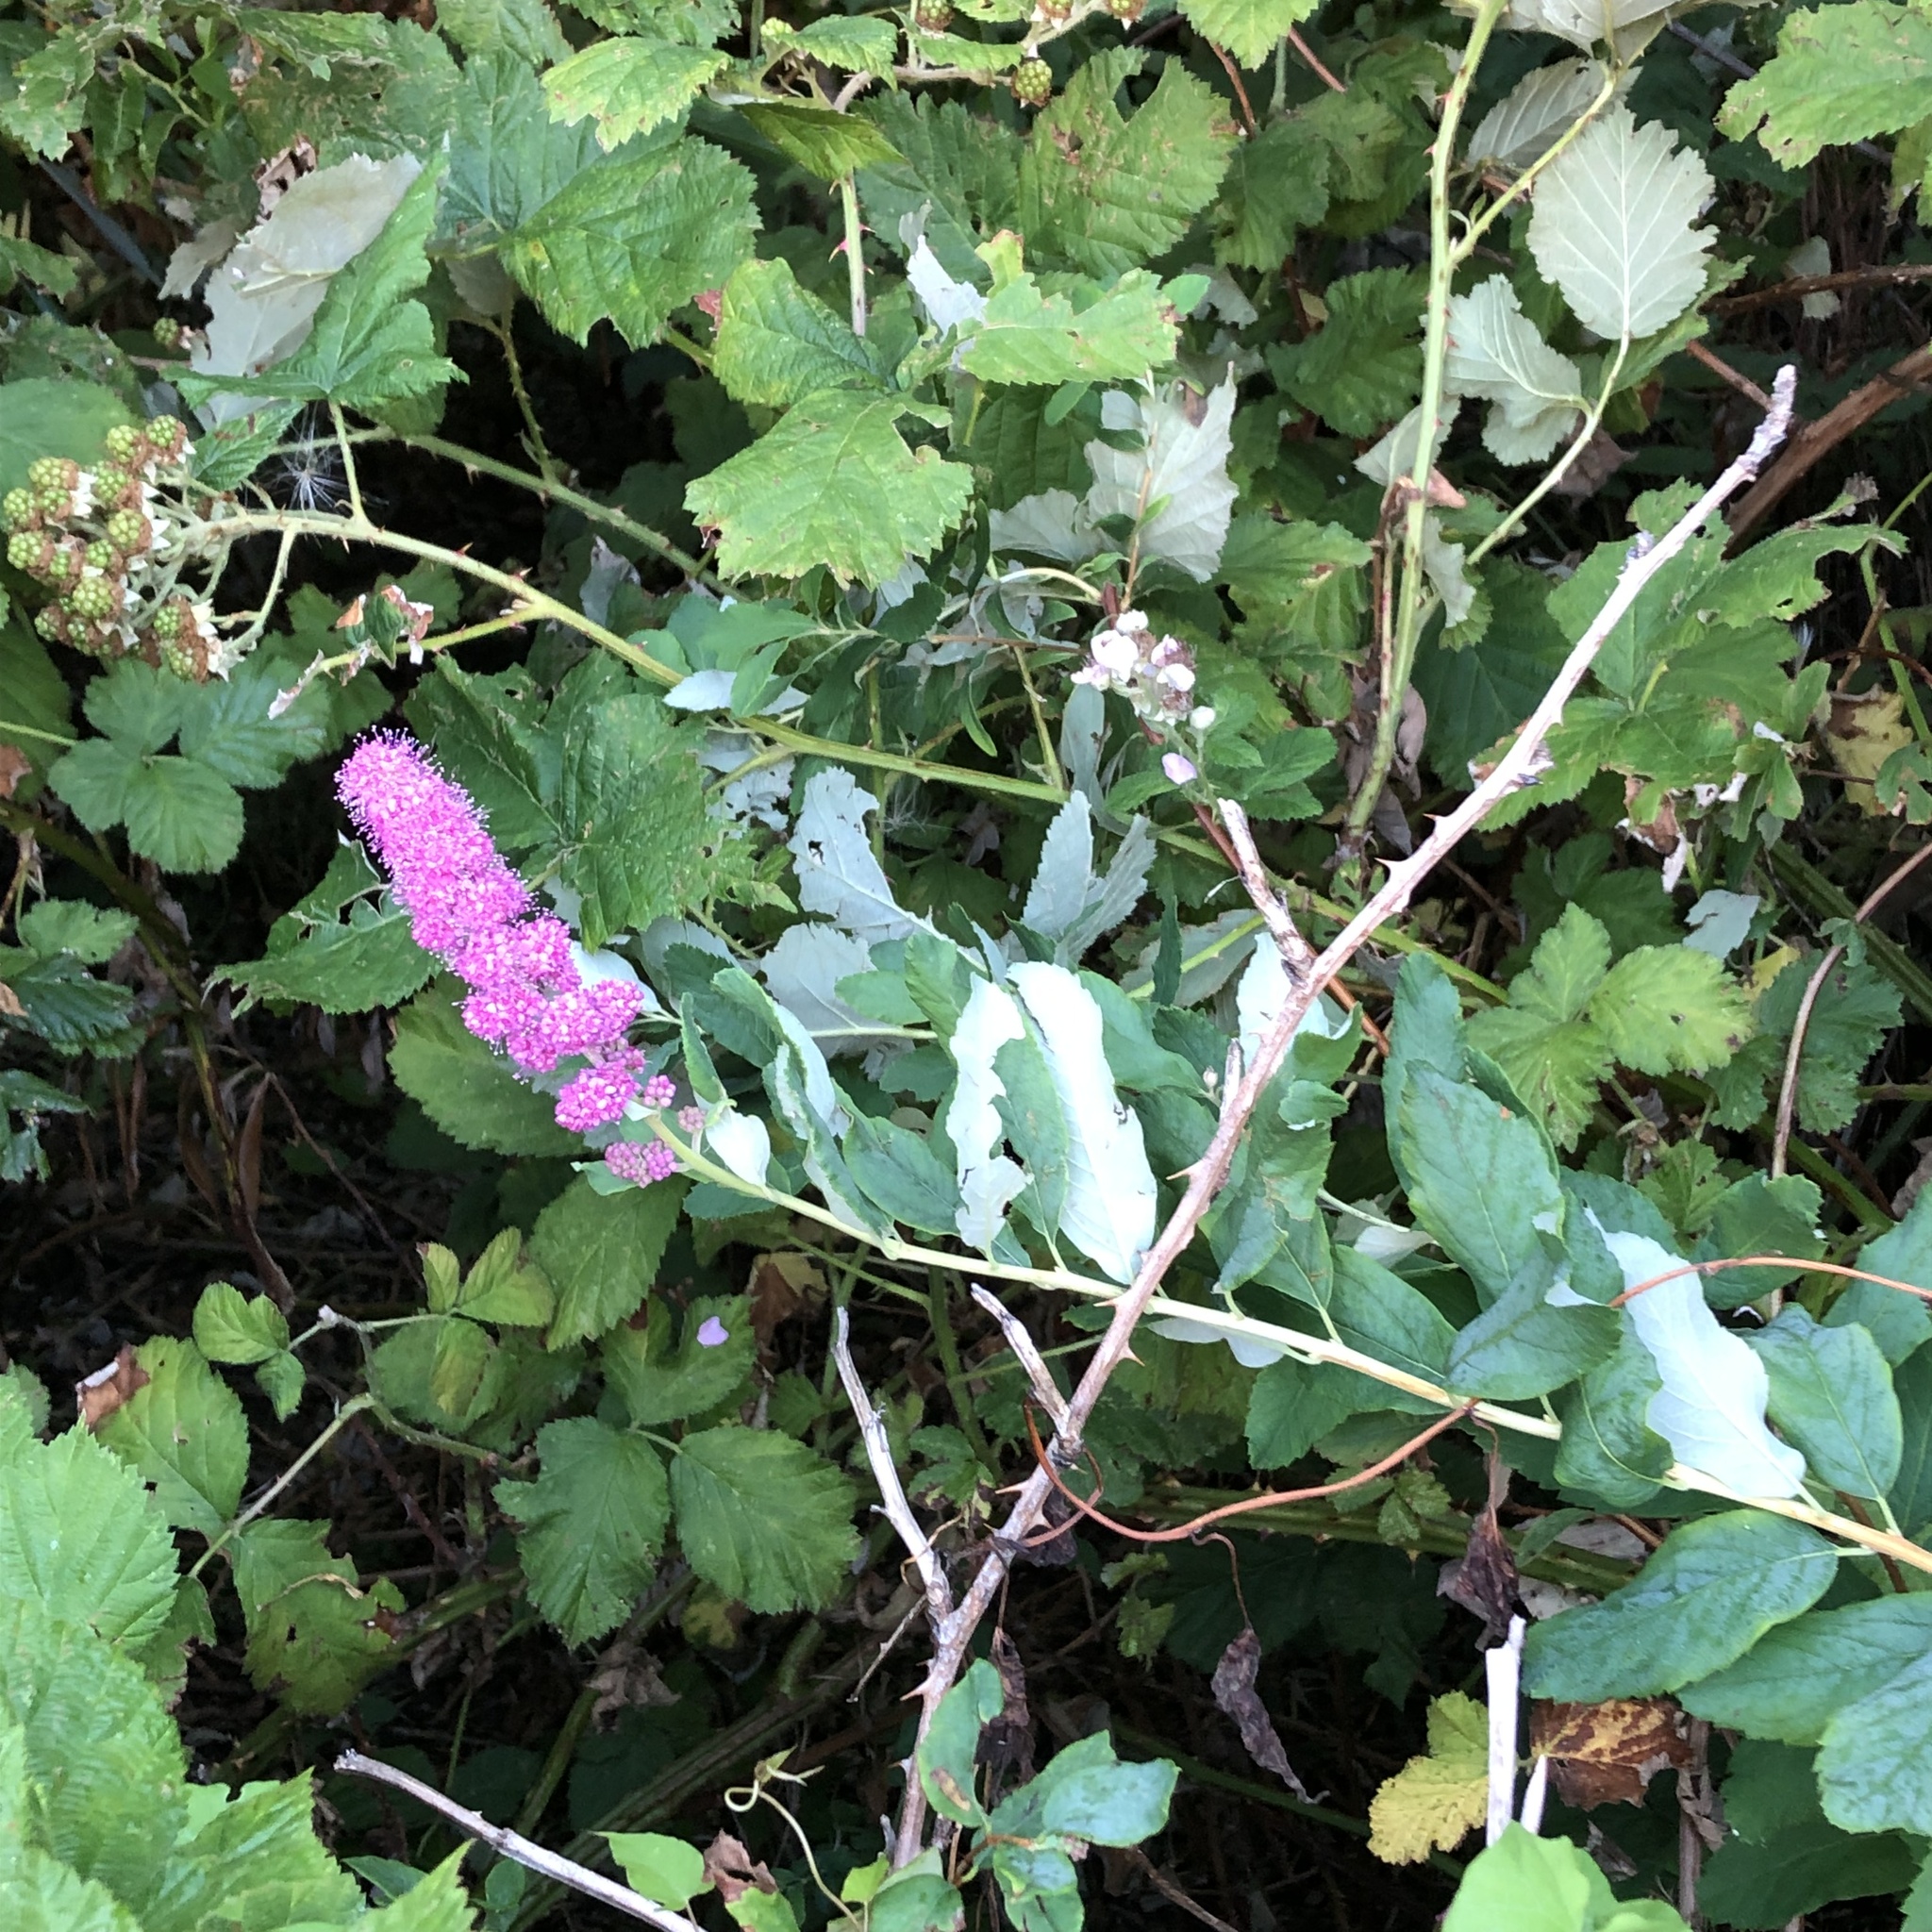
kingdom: Plantae
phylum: Tracheophyta
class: Magnoliopsida
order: Rosales
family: Rosaceae
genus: Spiraea
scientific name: Spiraea douglasii
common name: Steeplebush
